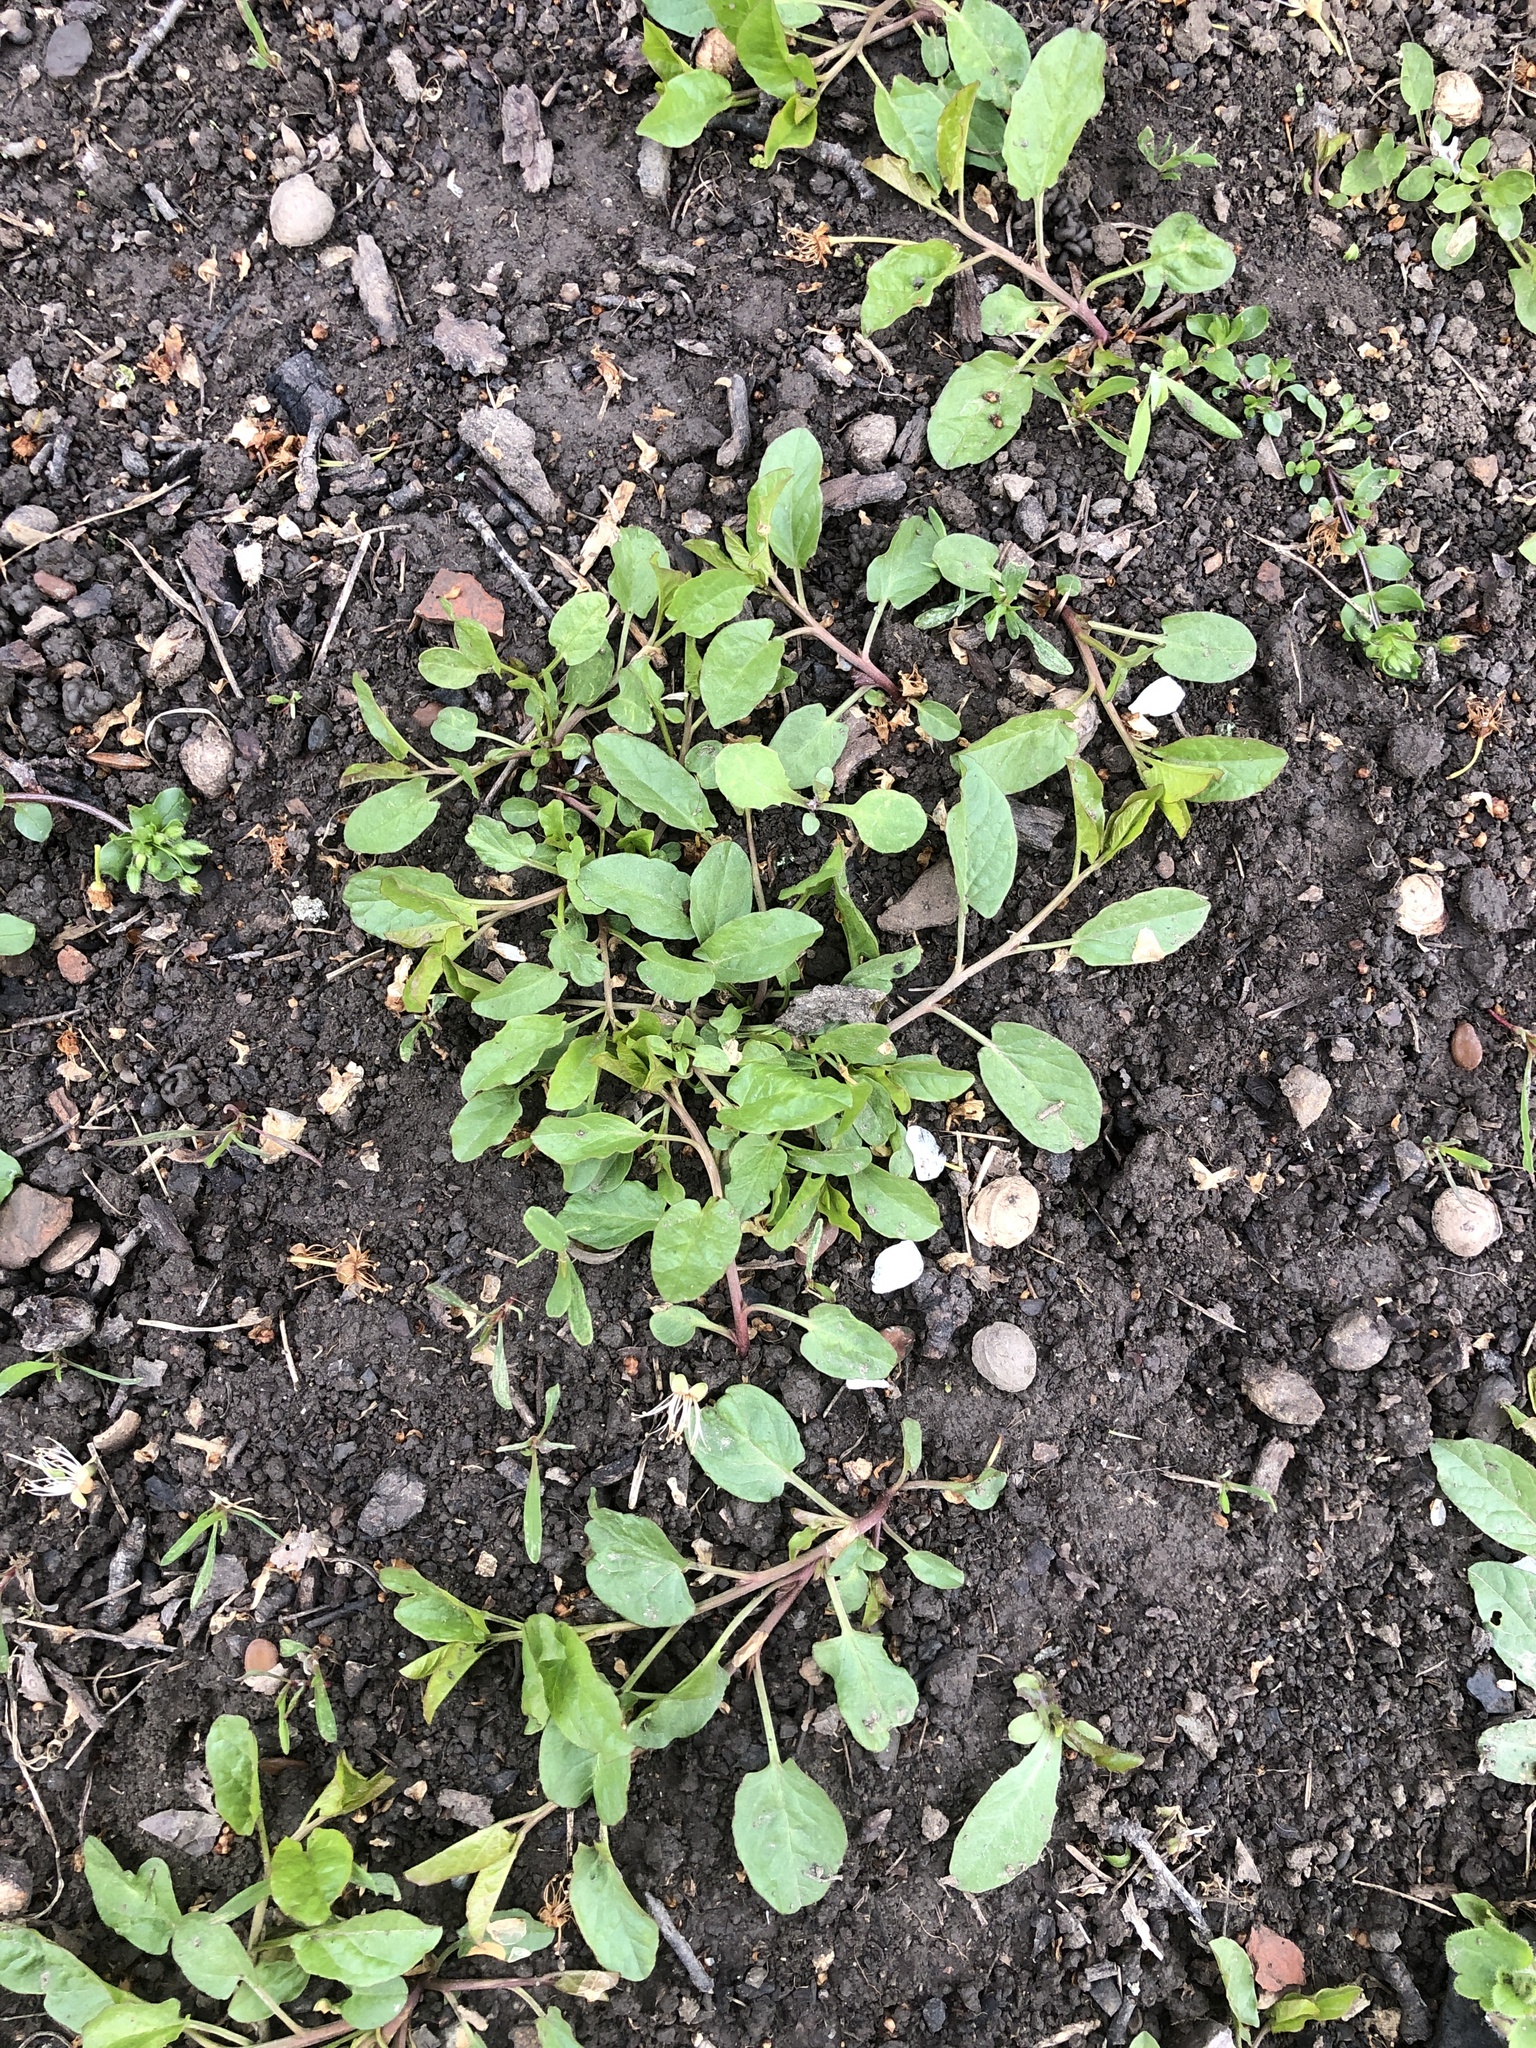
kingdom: Plantae
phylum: Tracheophyta
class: Magnoliopsida
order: Solanales
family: Convolvulaceae
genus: Convolvulus
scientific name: Convolvulus arvensis
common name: Field bindweed
